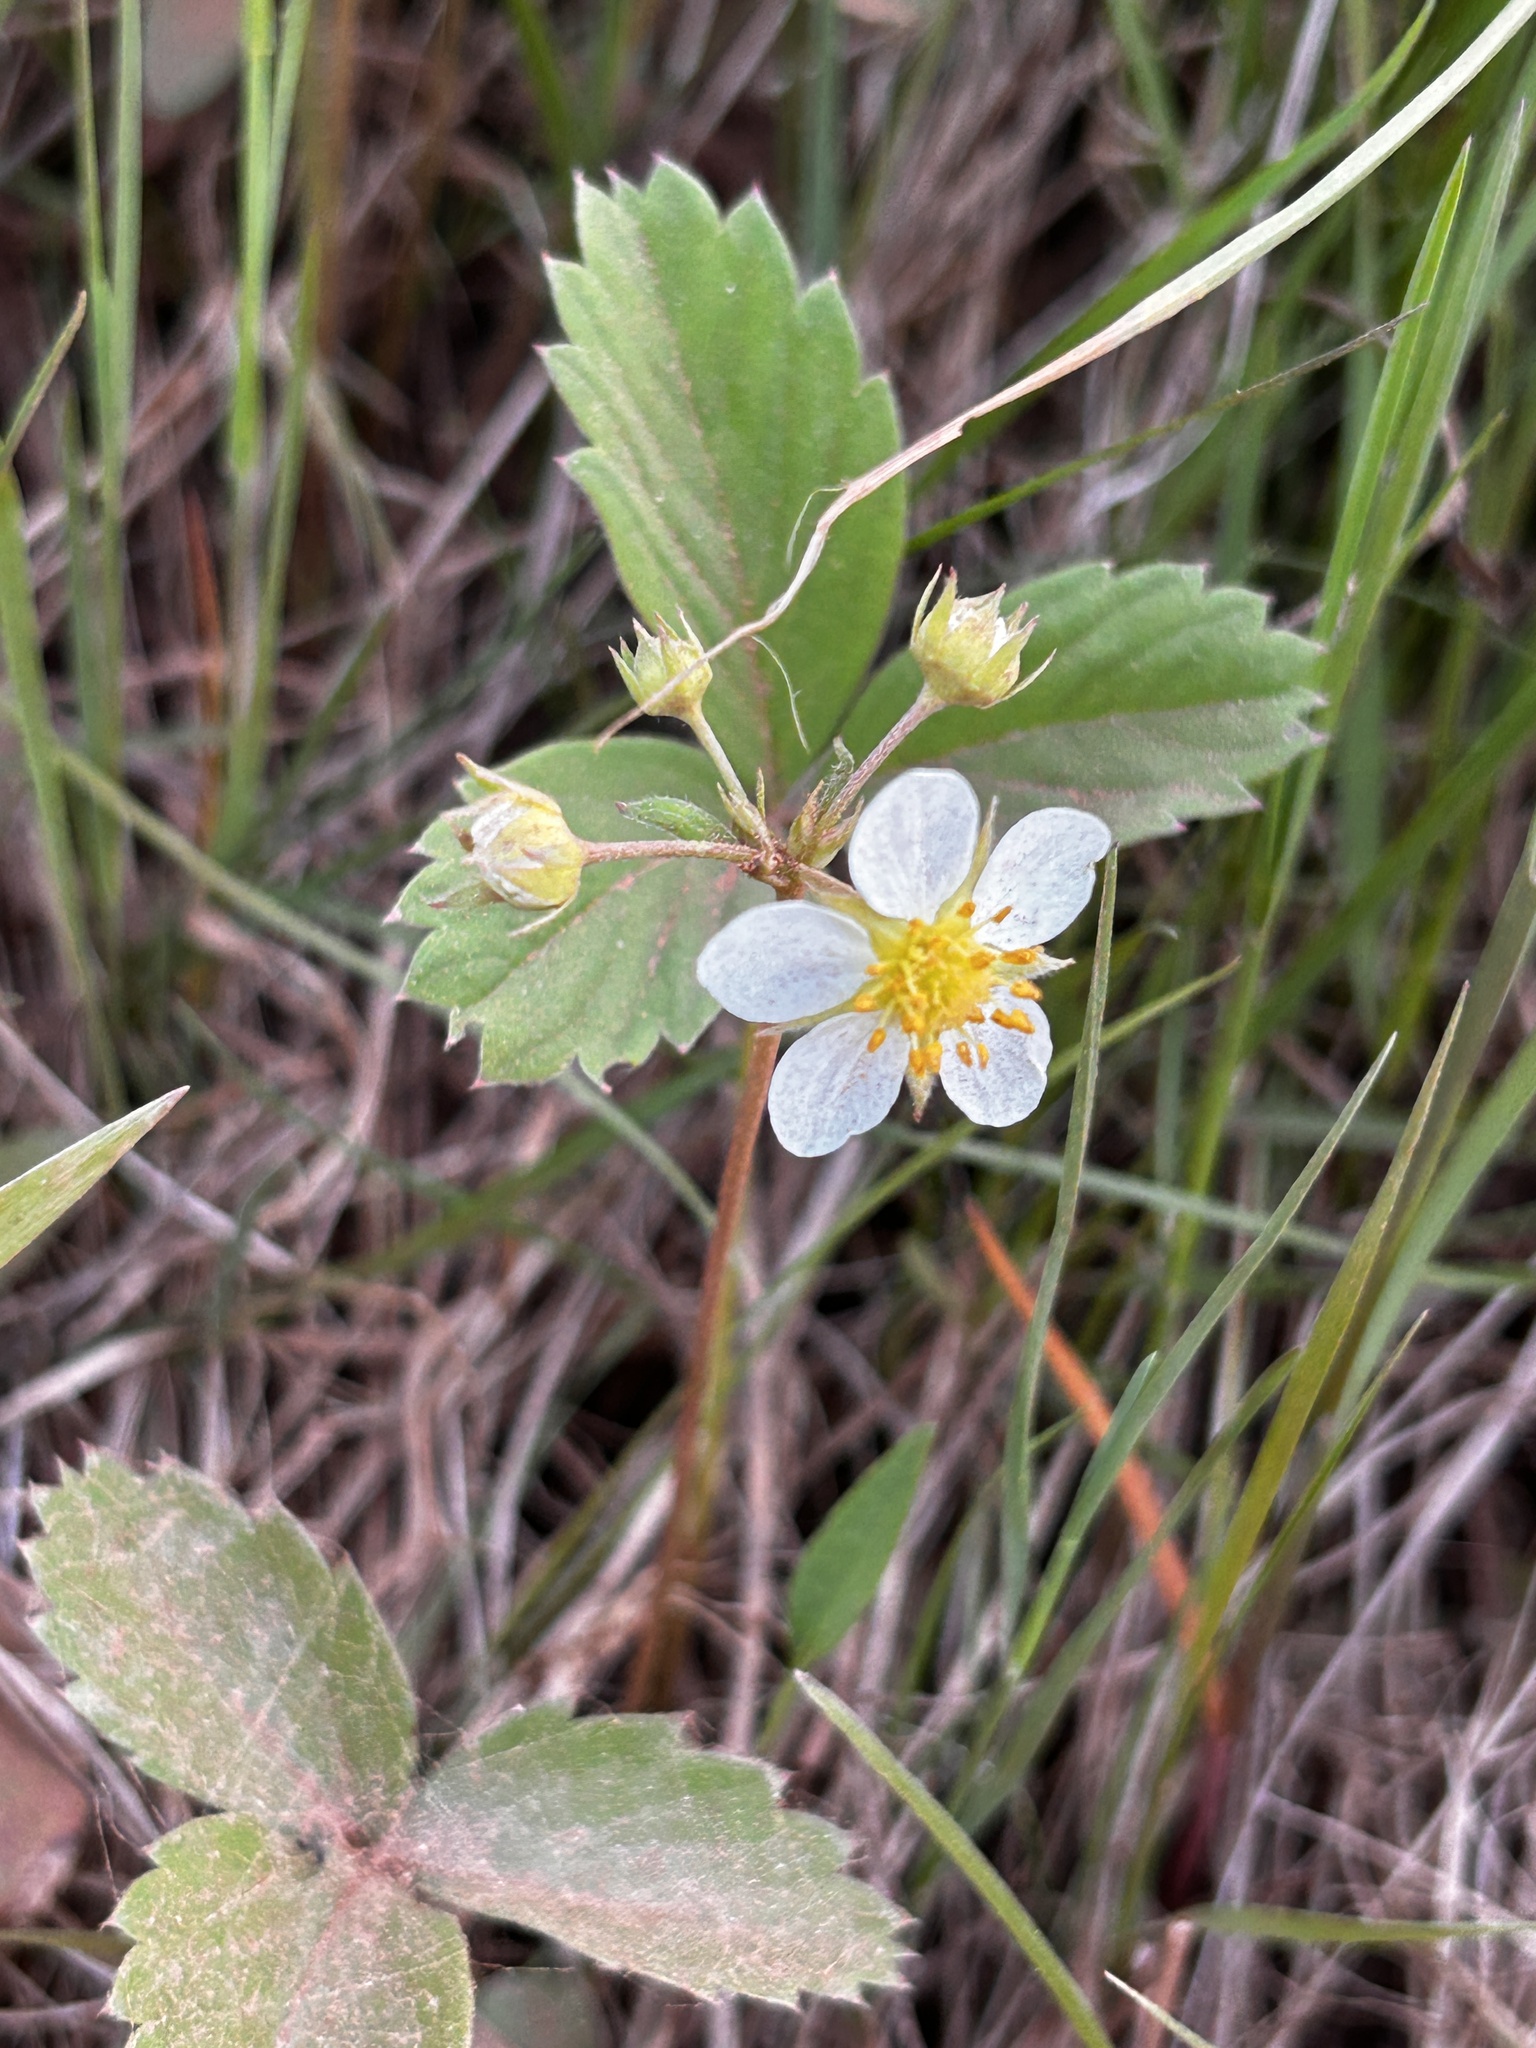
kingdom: Plantae
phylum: Tracheophyta
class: Magnoliopsida
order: Rosales
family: Rosaceae
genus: Fragaria
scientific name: Fragaria virginiana
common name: Thickleaved wild strawberry
